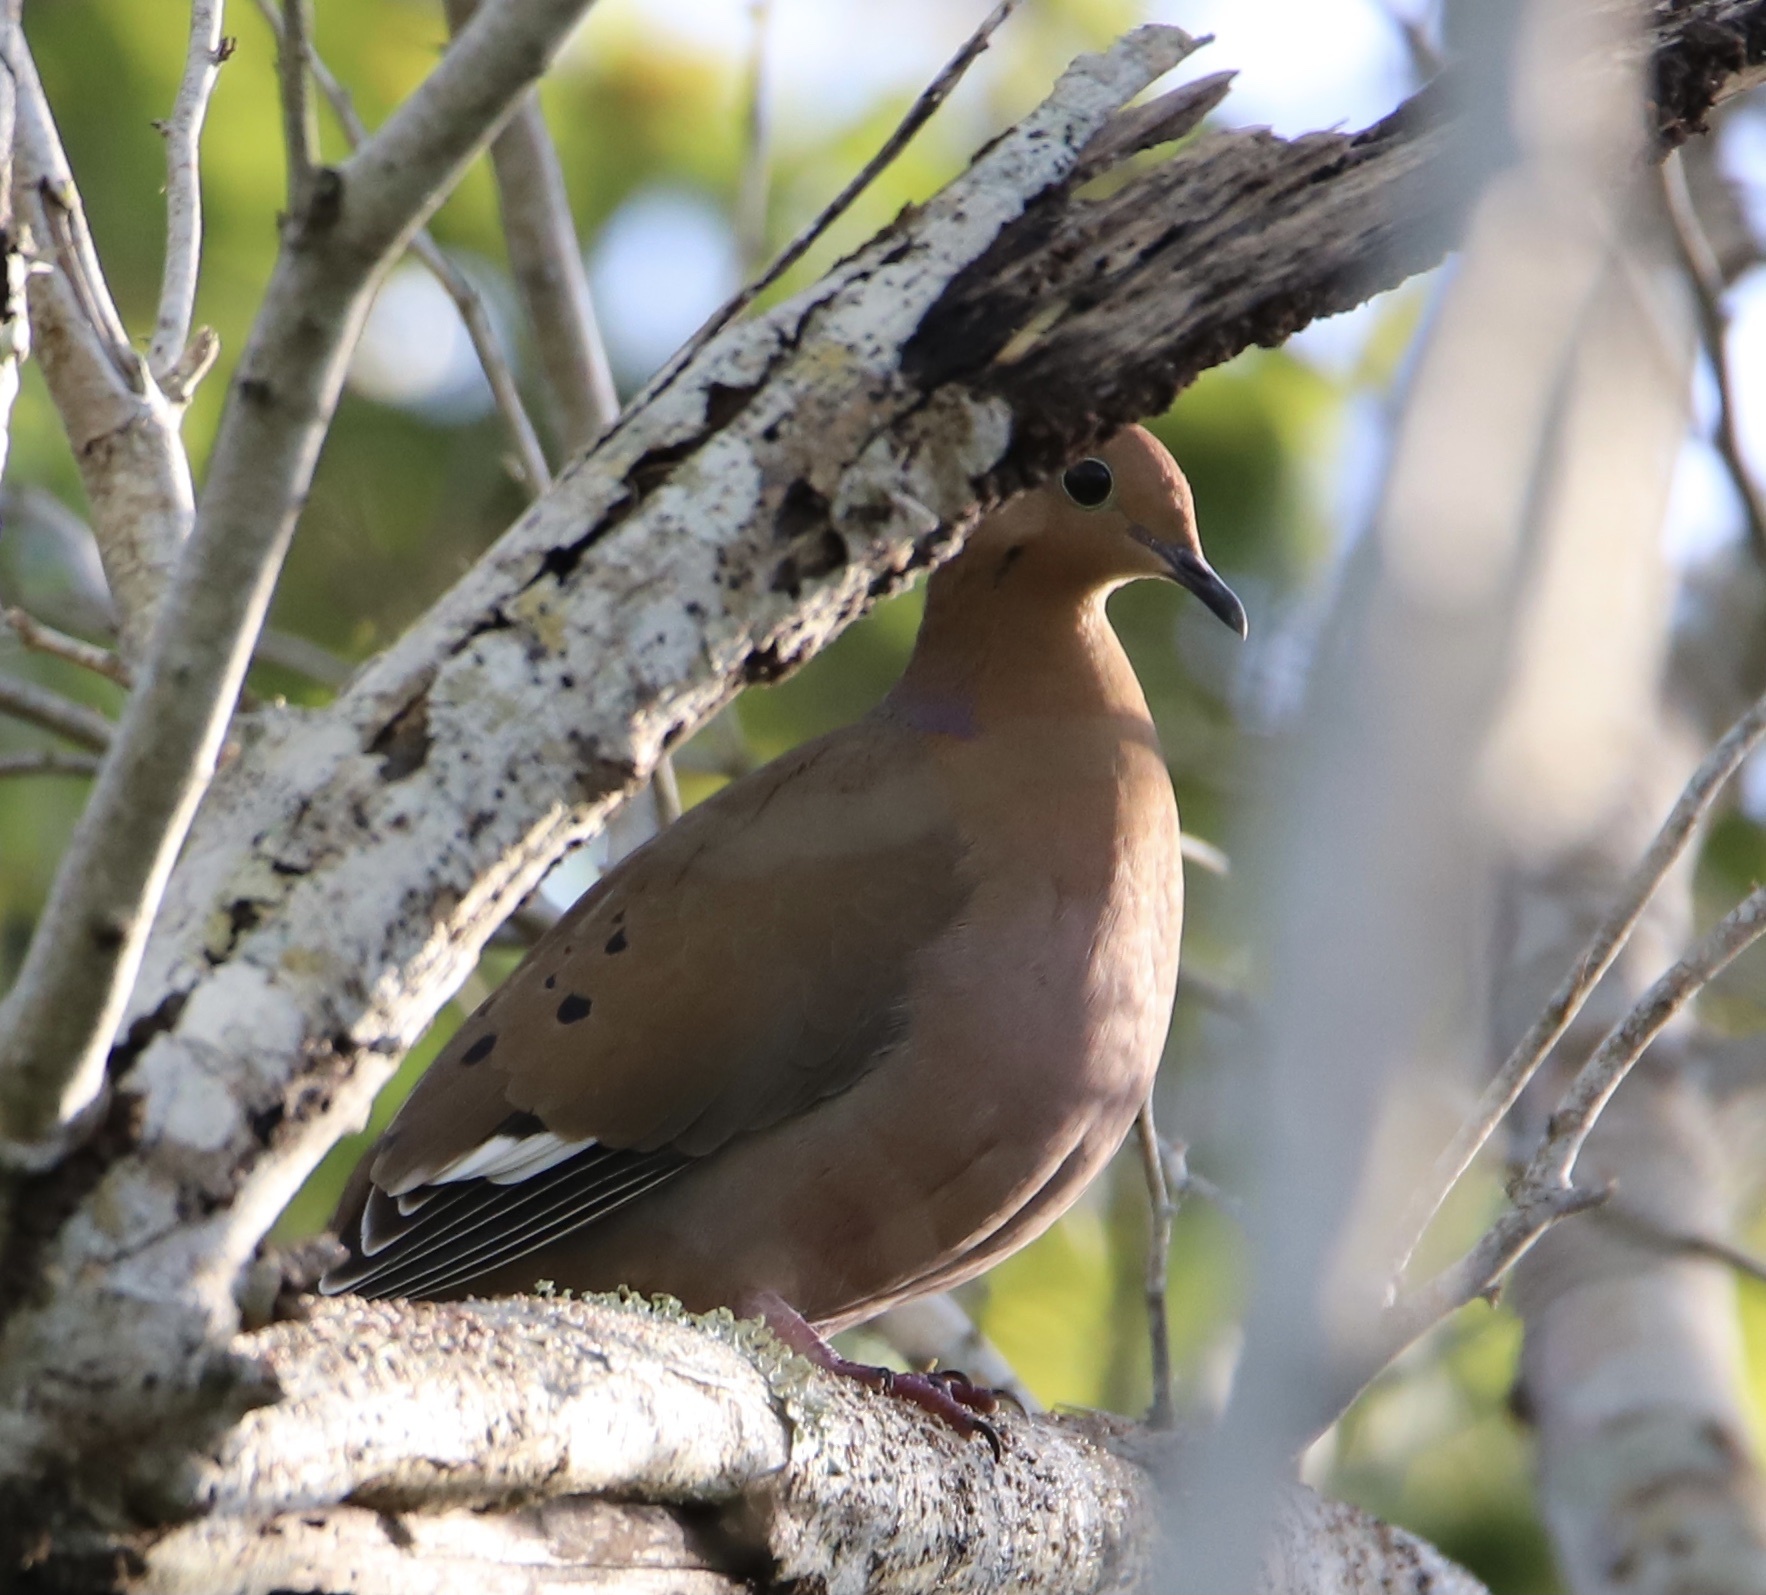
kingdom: Animalia
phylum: Chordata
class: Aves
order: Columbiformes
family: Columbidae
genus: Zenaida
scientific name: Zenaida aurita
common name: Zenaida dove
